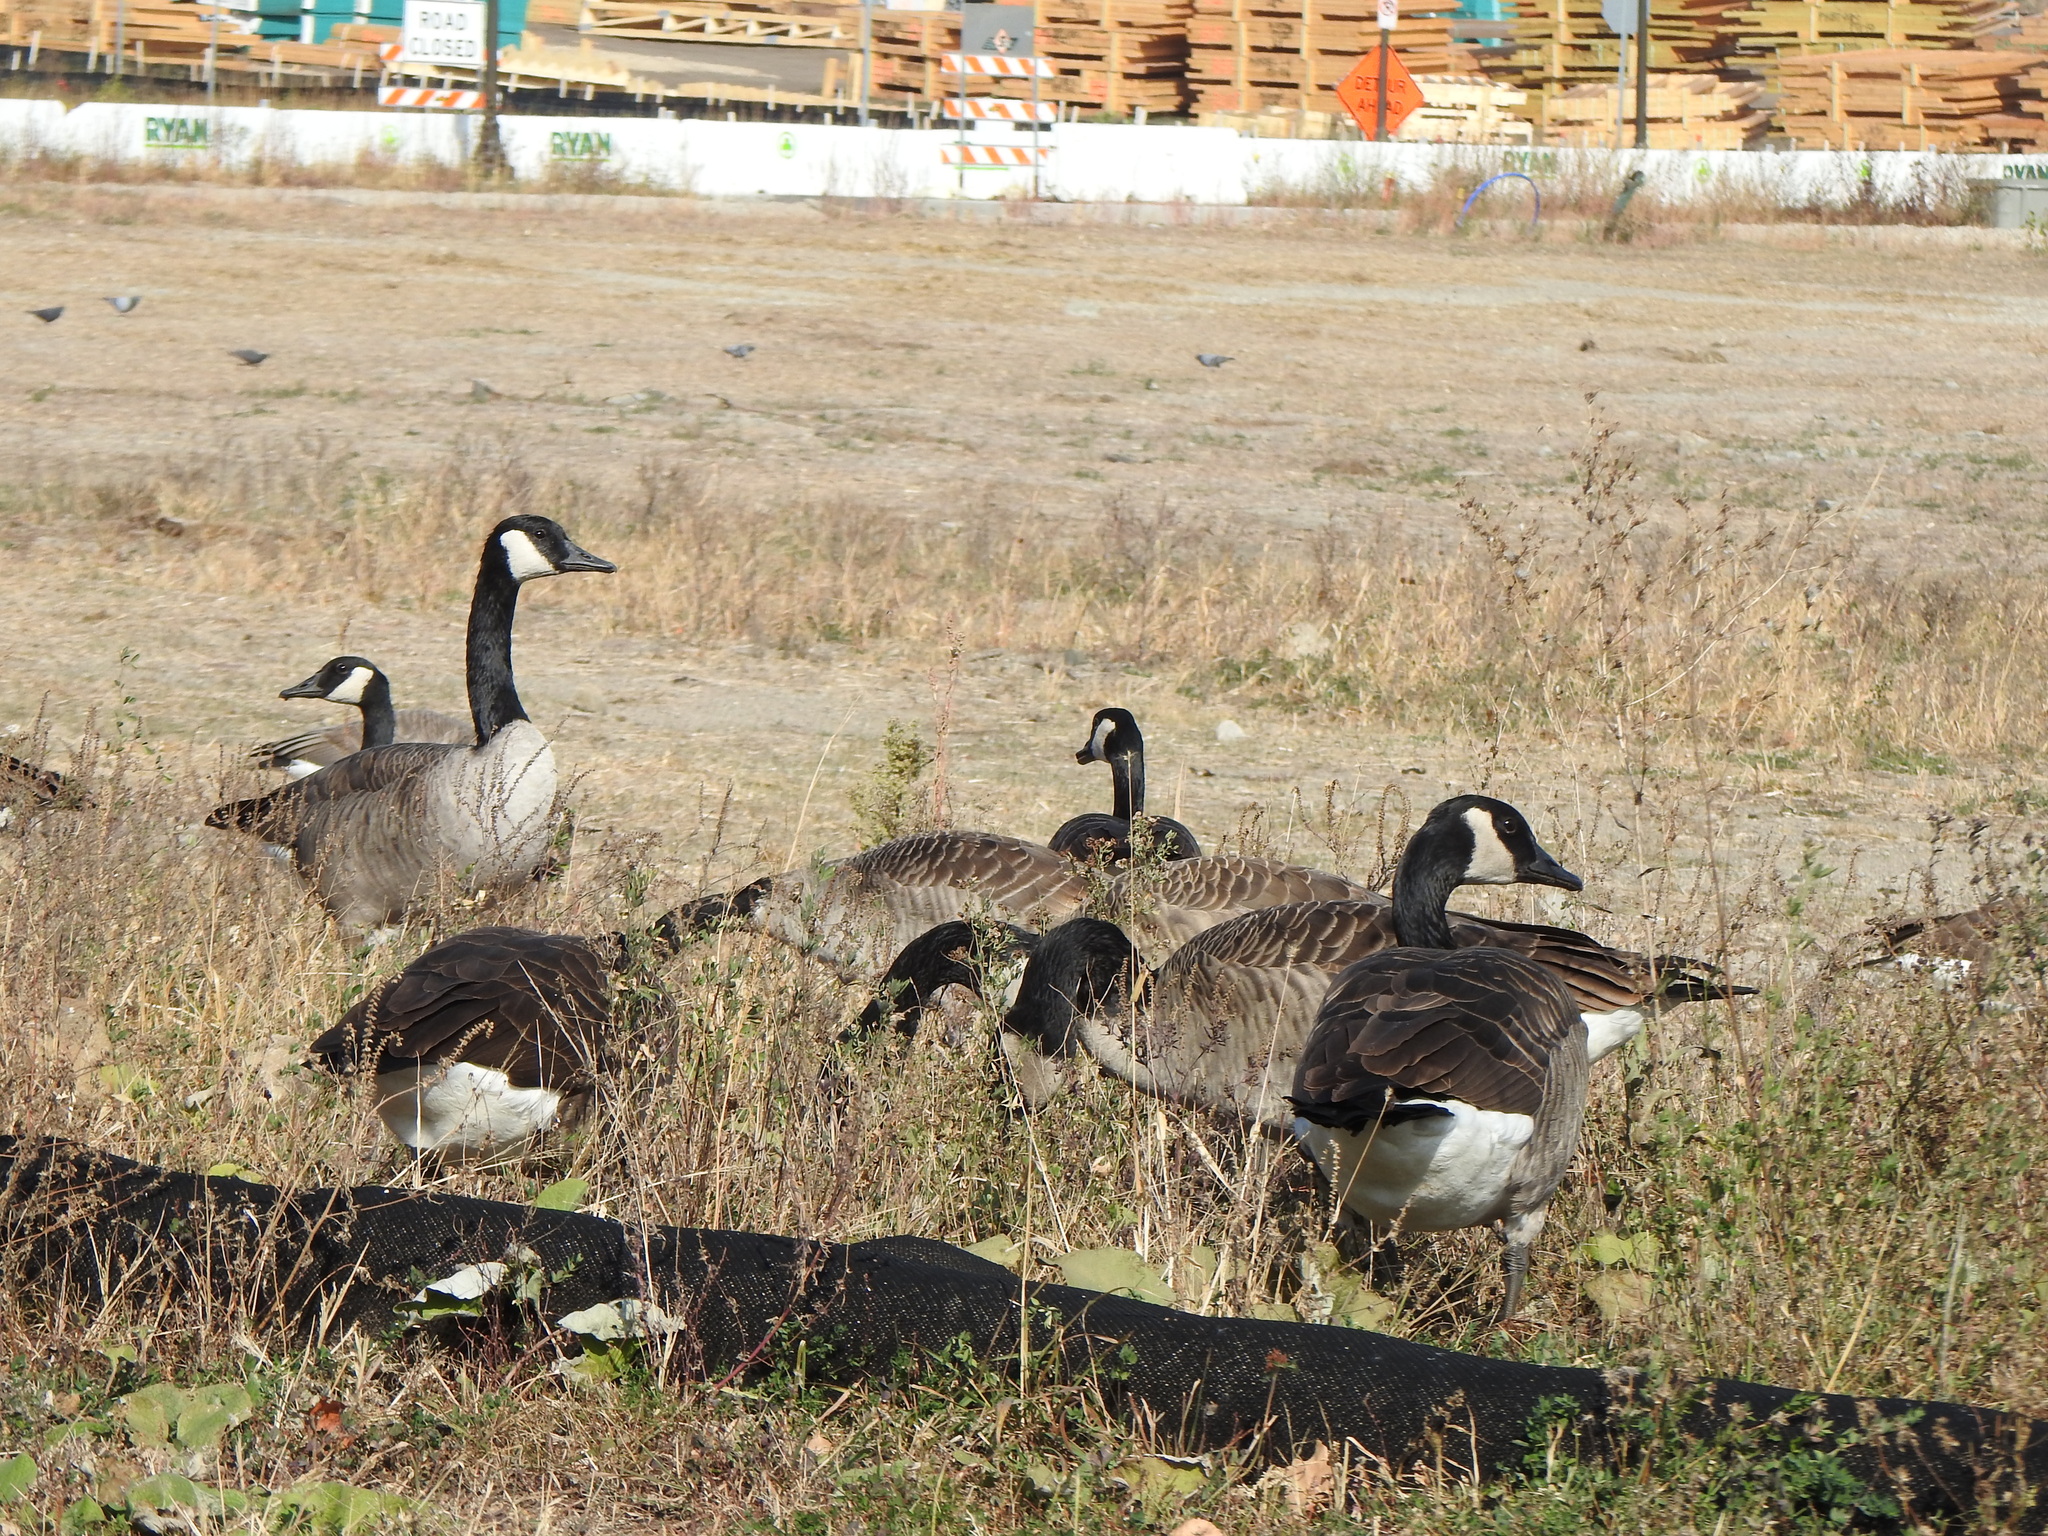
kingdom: Animalia
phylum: Chordata
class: Aves
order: Anseriformes
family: Anatidae
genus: Branta
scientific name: Branta canadensis
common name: Canada goose
